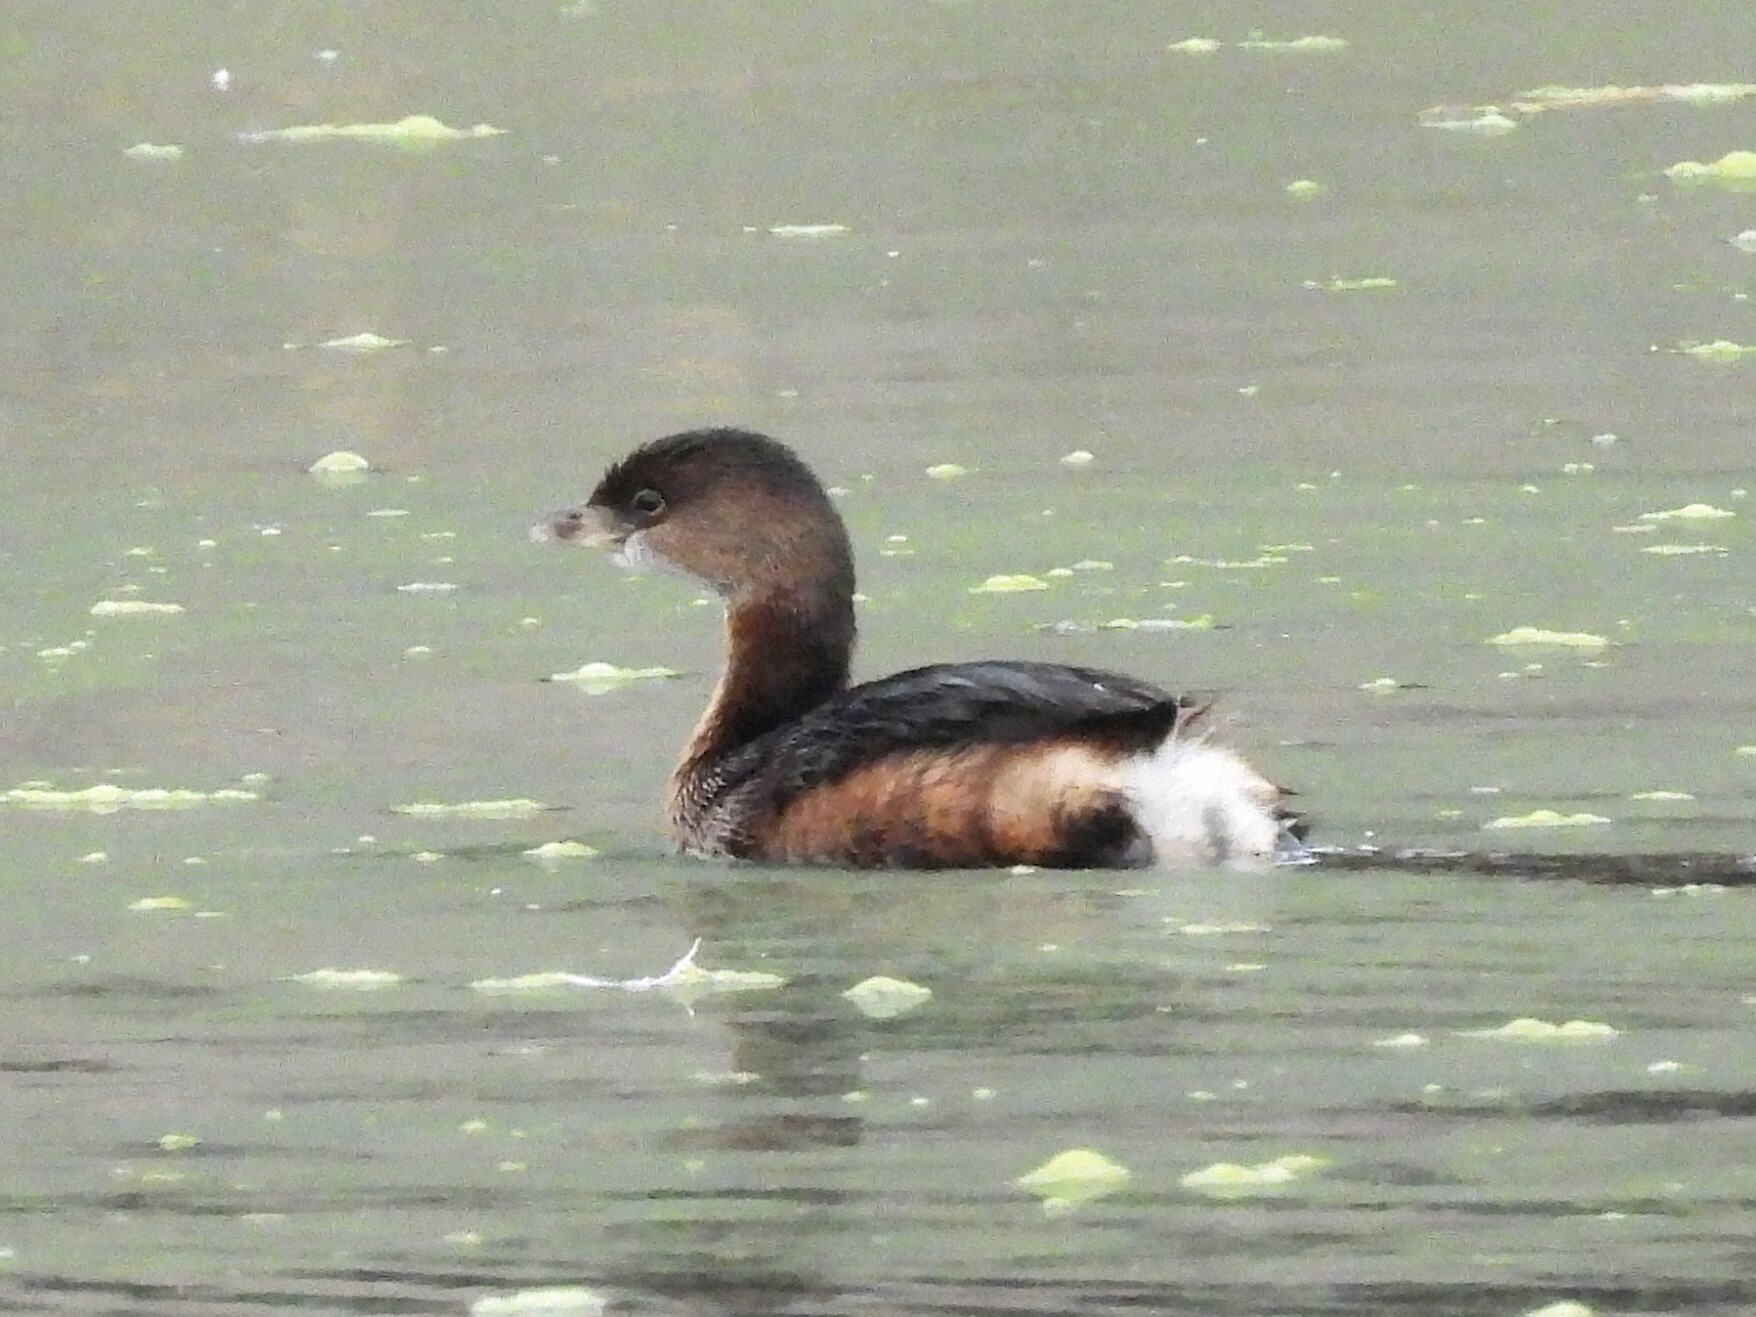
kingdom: Animalia
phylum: Chordata
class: Aves
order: Podicipediformes
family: Podicipedidae
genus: Podilymbus
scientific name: Podilymbus podiceps
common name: Pied-billed grebe
